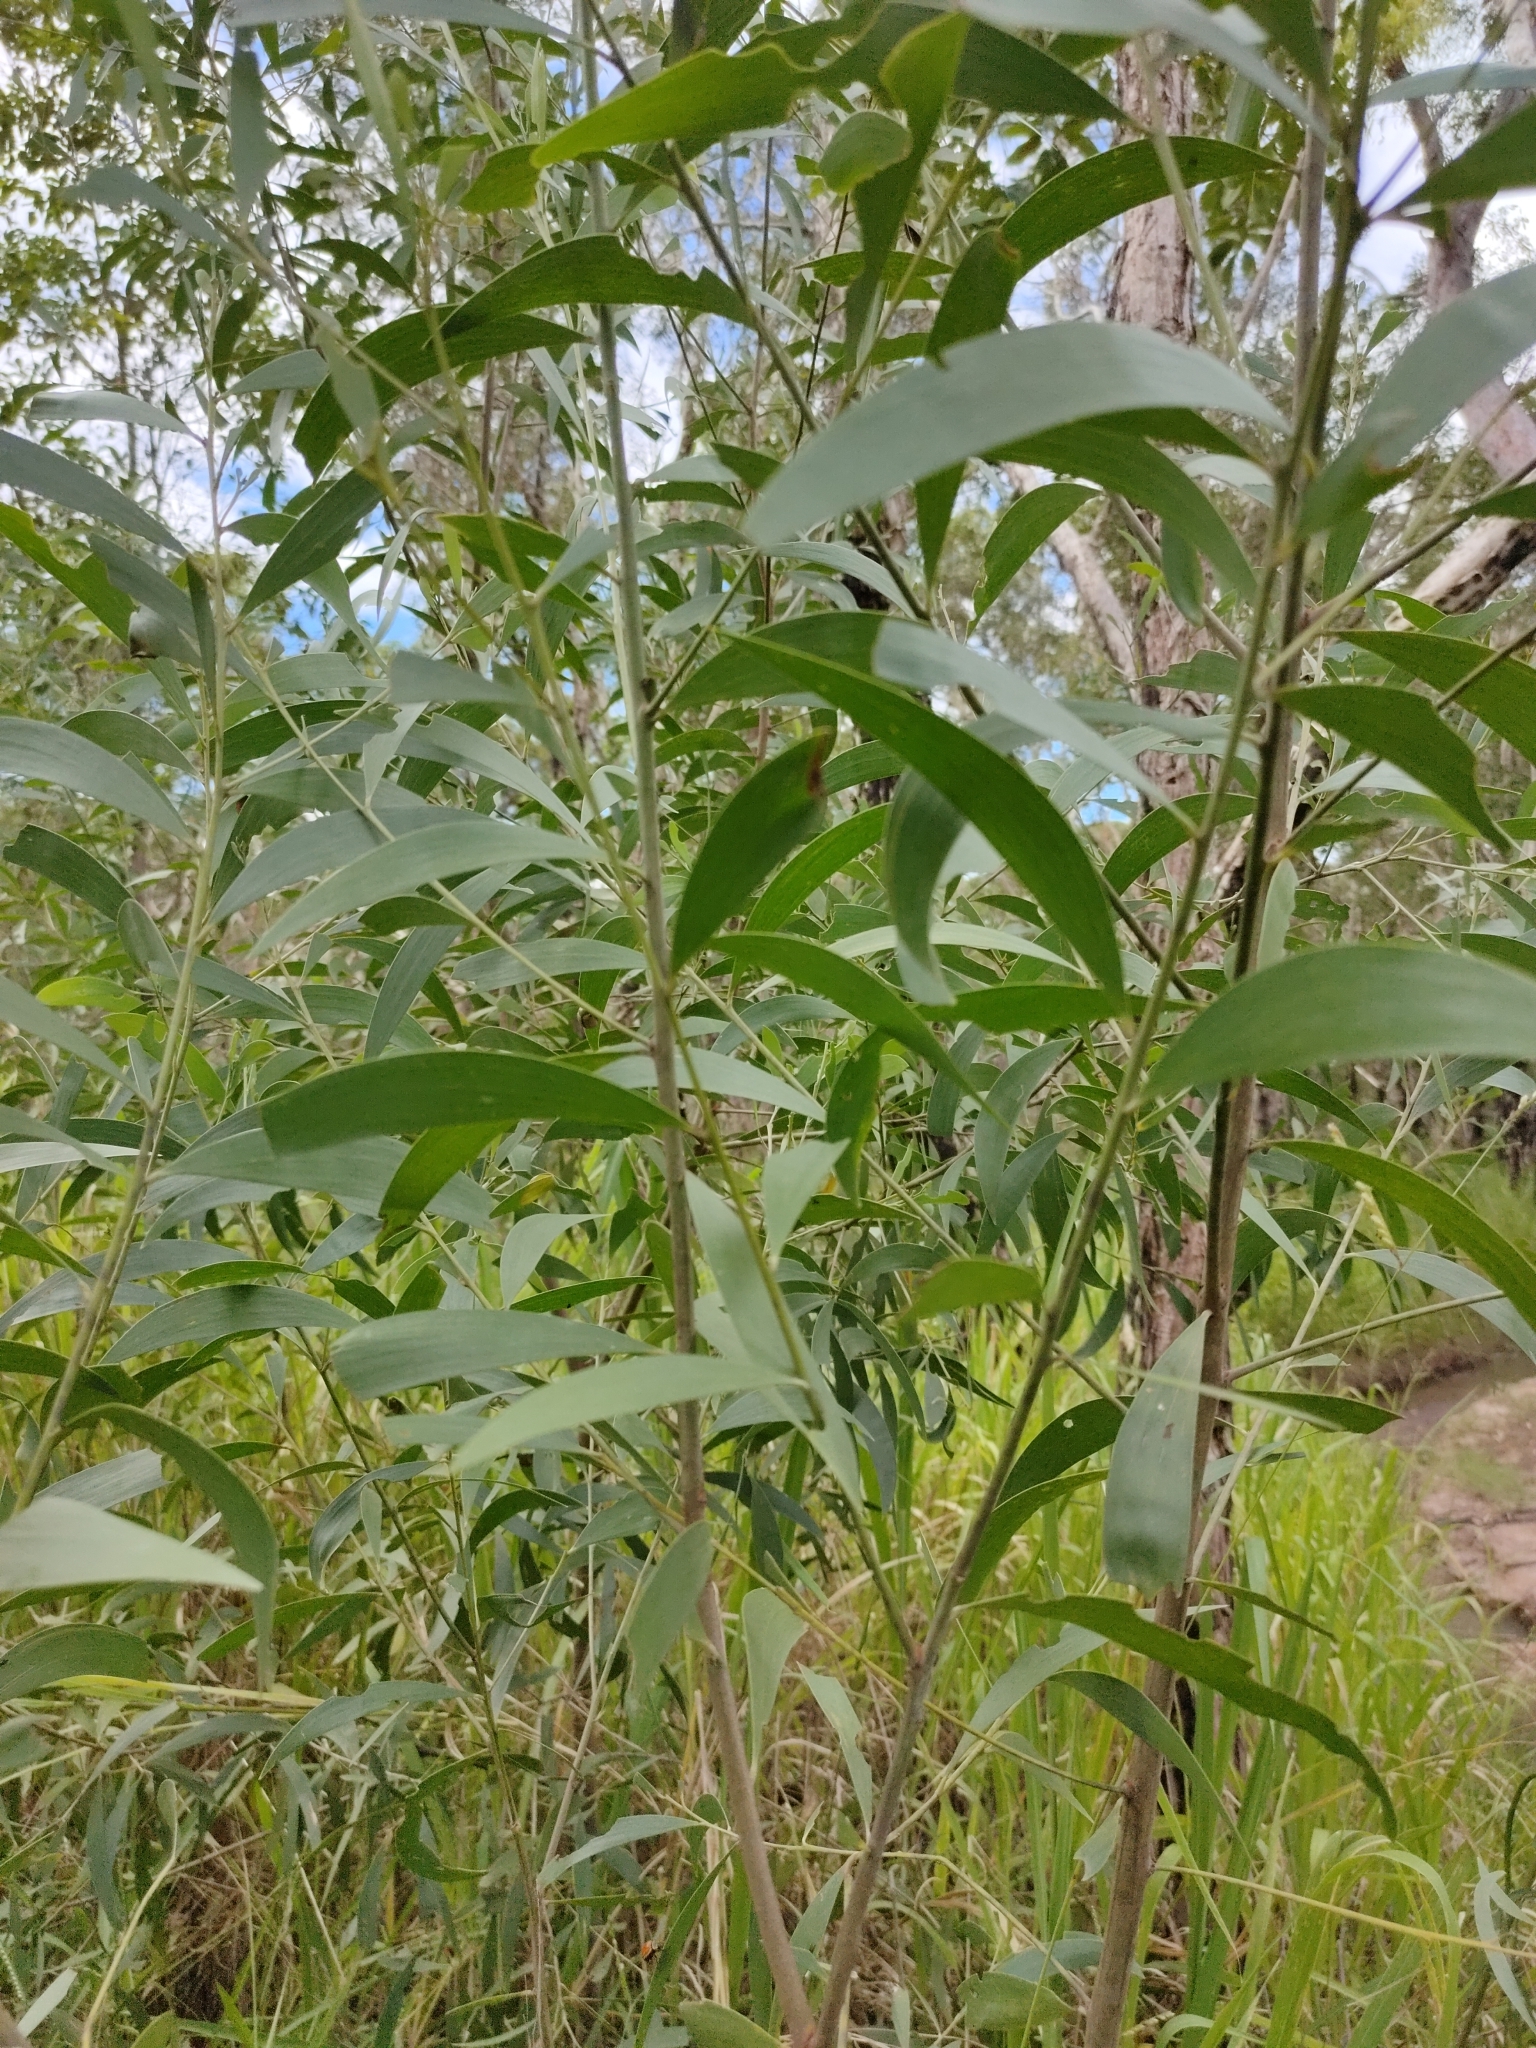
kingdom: Plantae
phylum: Tracheophyta
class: Magnoliopsida
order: Fabales
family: Fabaceae
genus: Acacia
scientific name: Acacia disparrima
